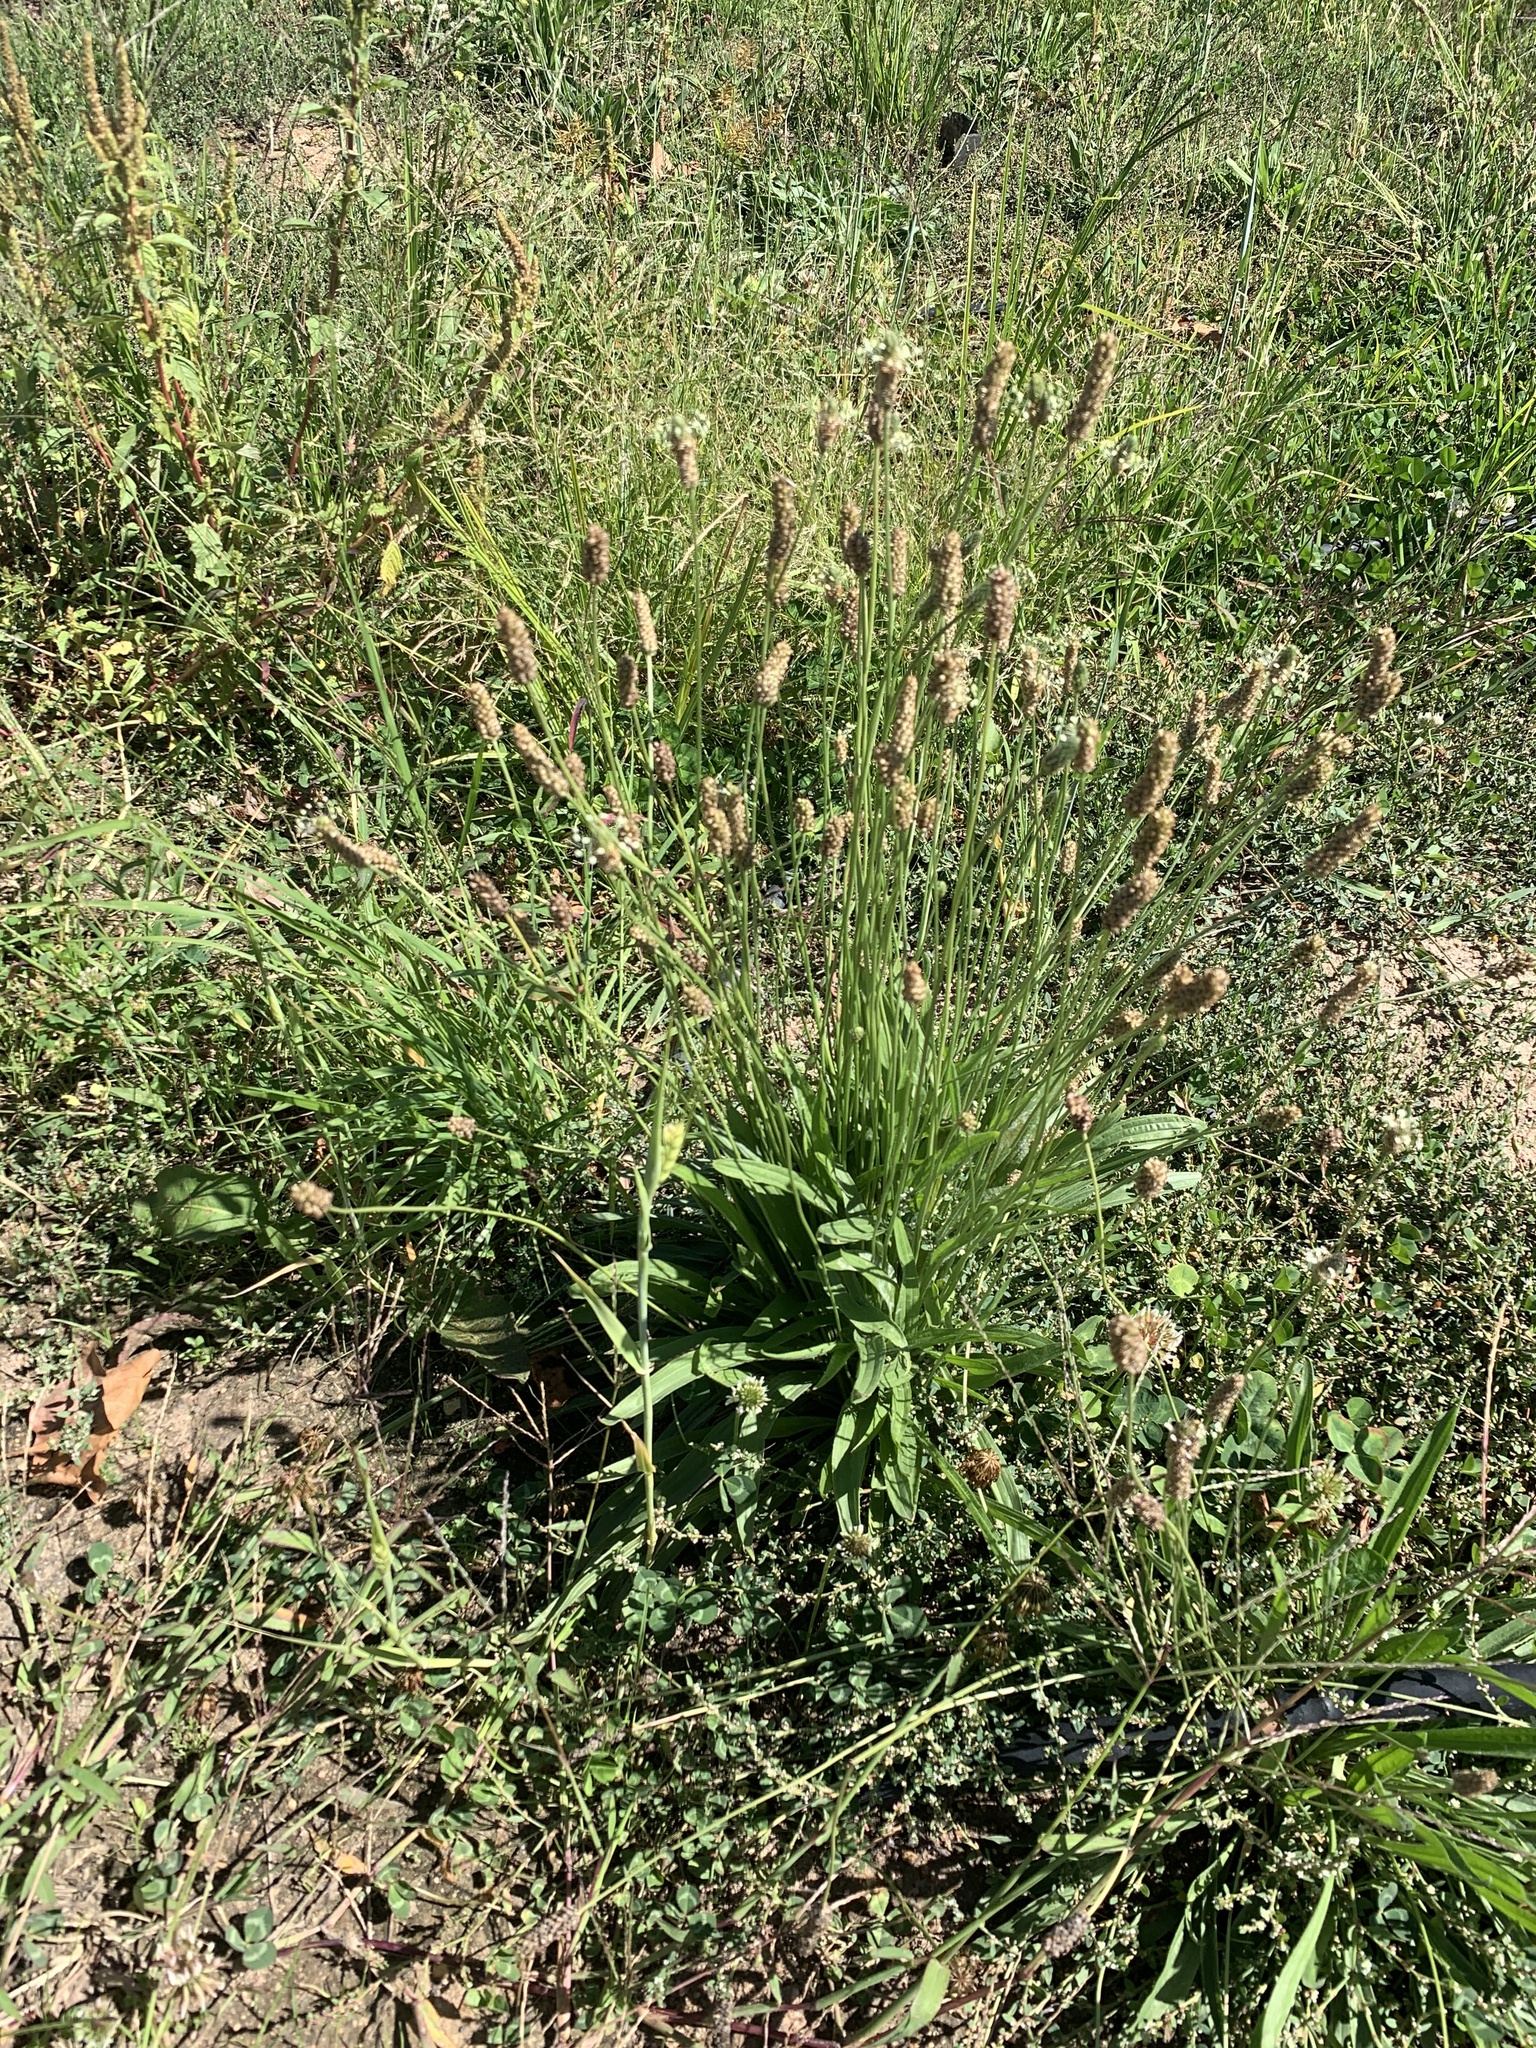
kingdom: Plantae
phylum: Tracheophyta
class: Magnoliopsida
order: Lamiales
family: Plantaginaceae
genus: Plantago
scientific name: Plantago lanceolata
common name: Ribwort plantain
